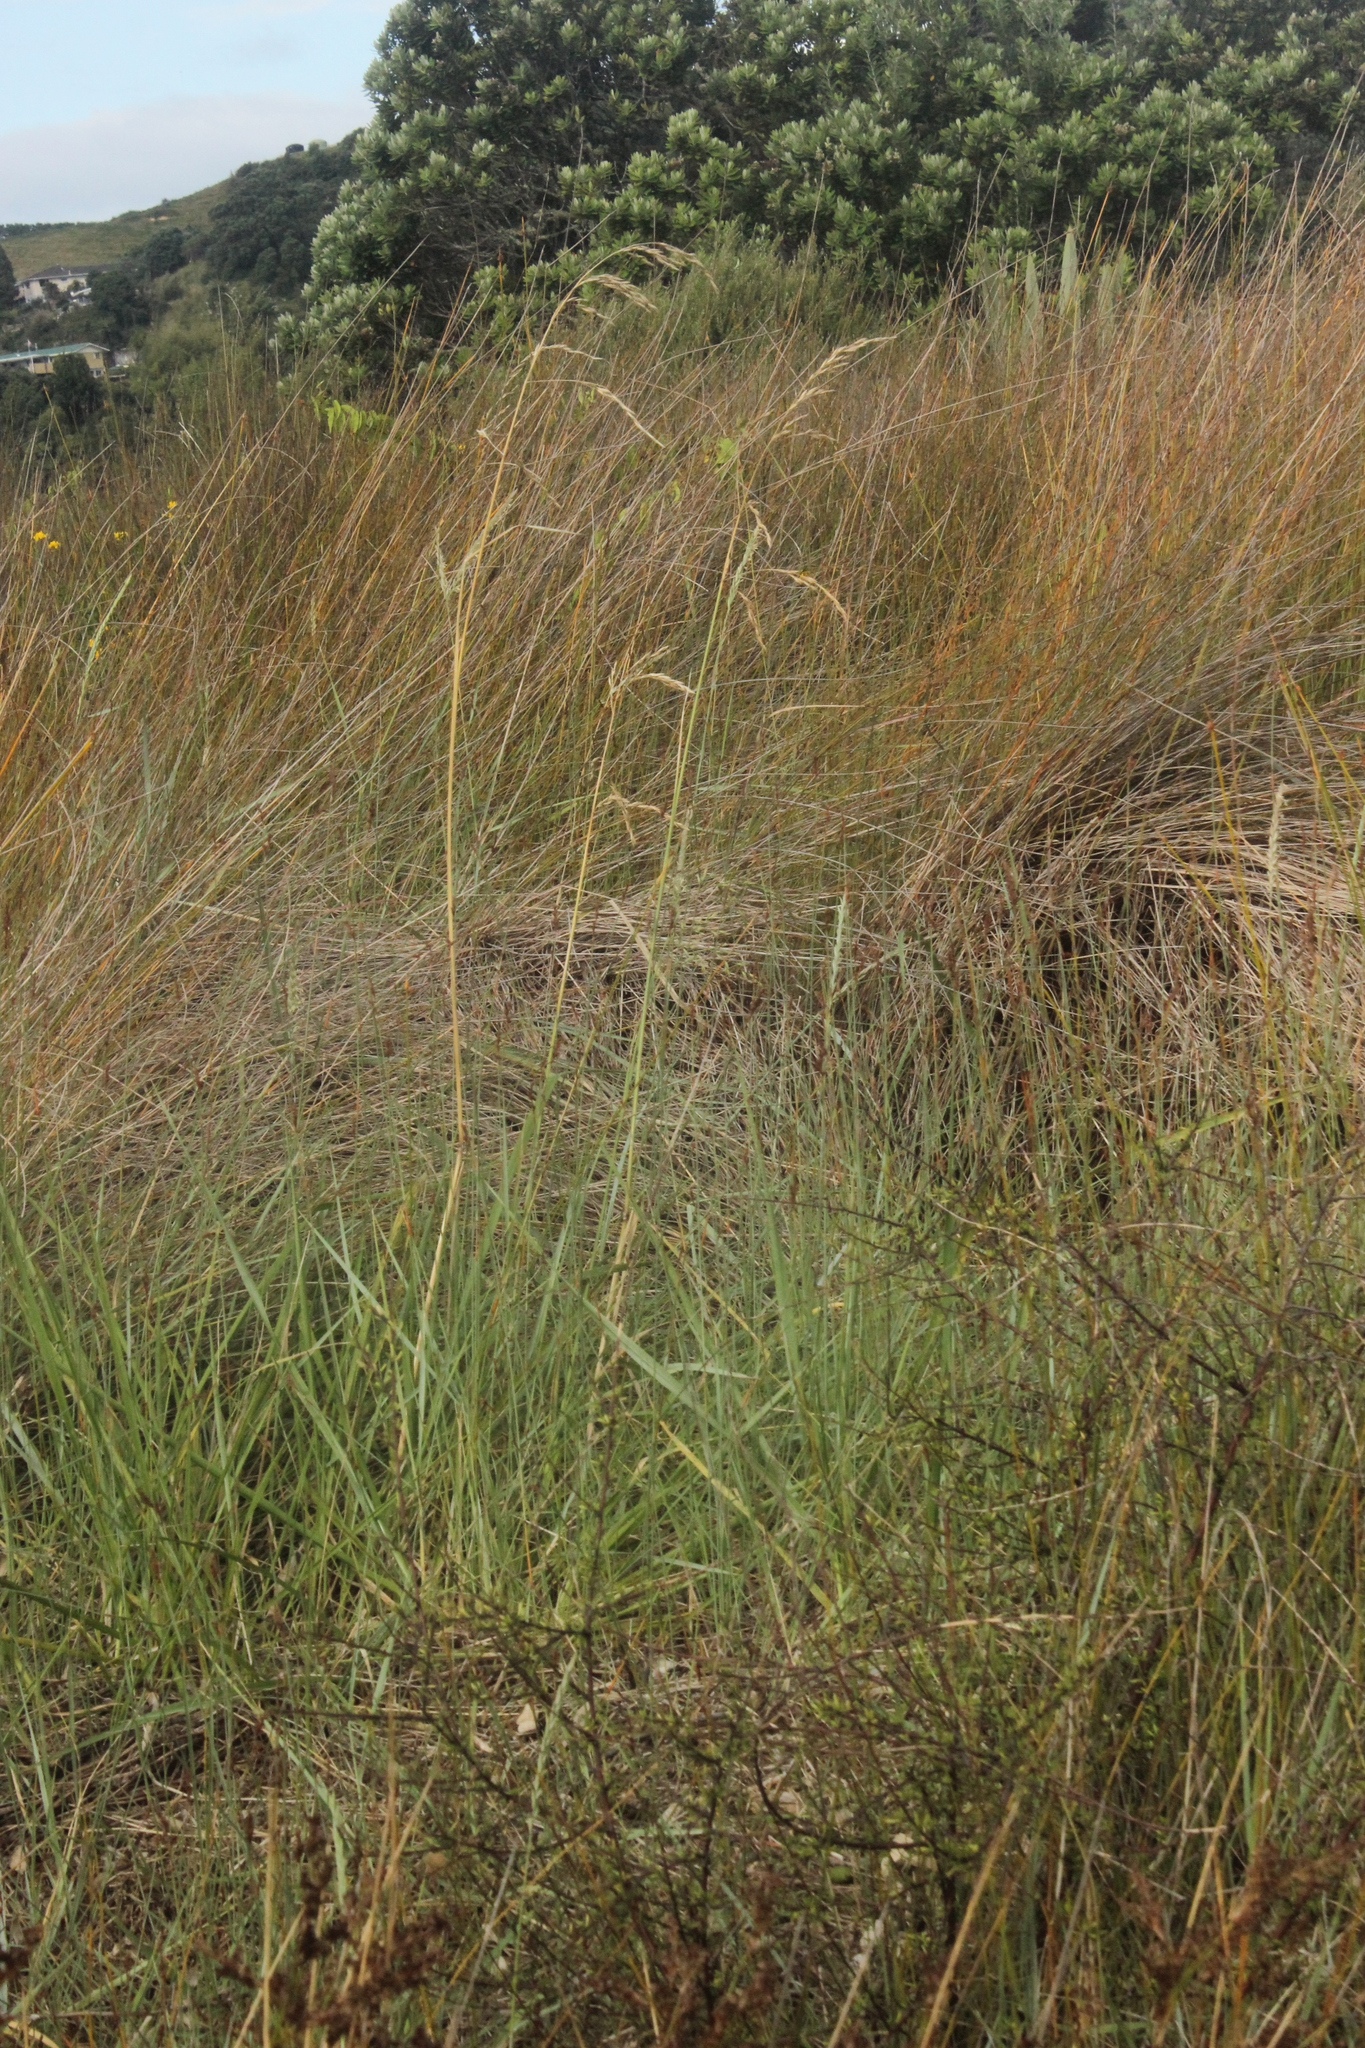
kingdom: Plantae
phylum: Tracheophyta
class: Liliopsida
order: Poales
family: Poaceae
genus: Lolium
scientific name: Lolium arundinaceum
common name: Reed fescue
